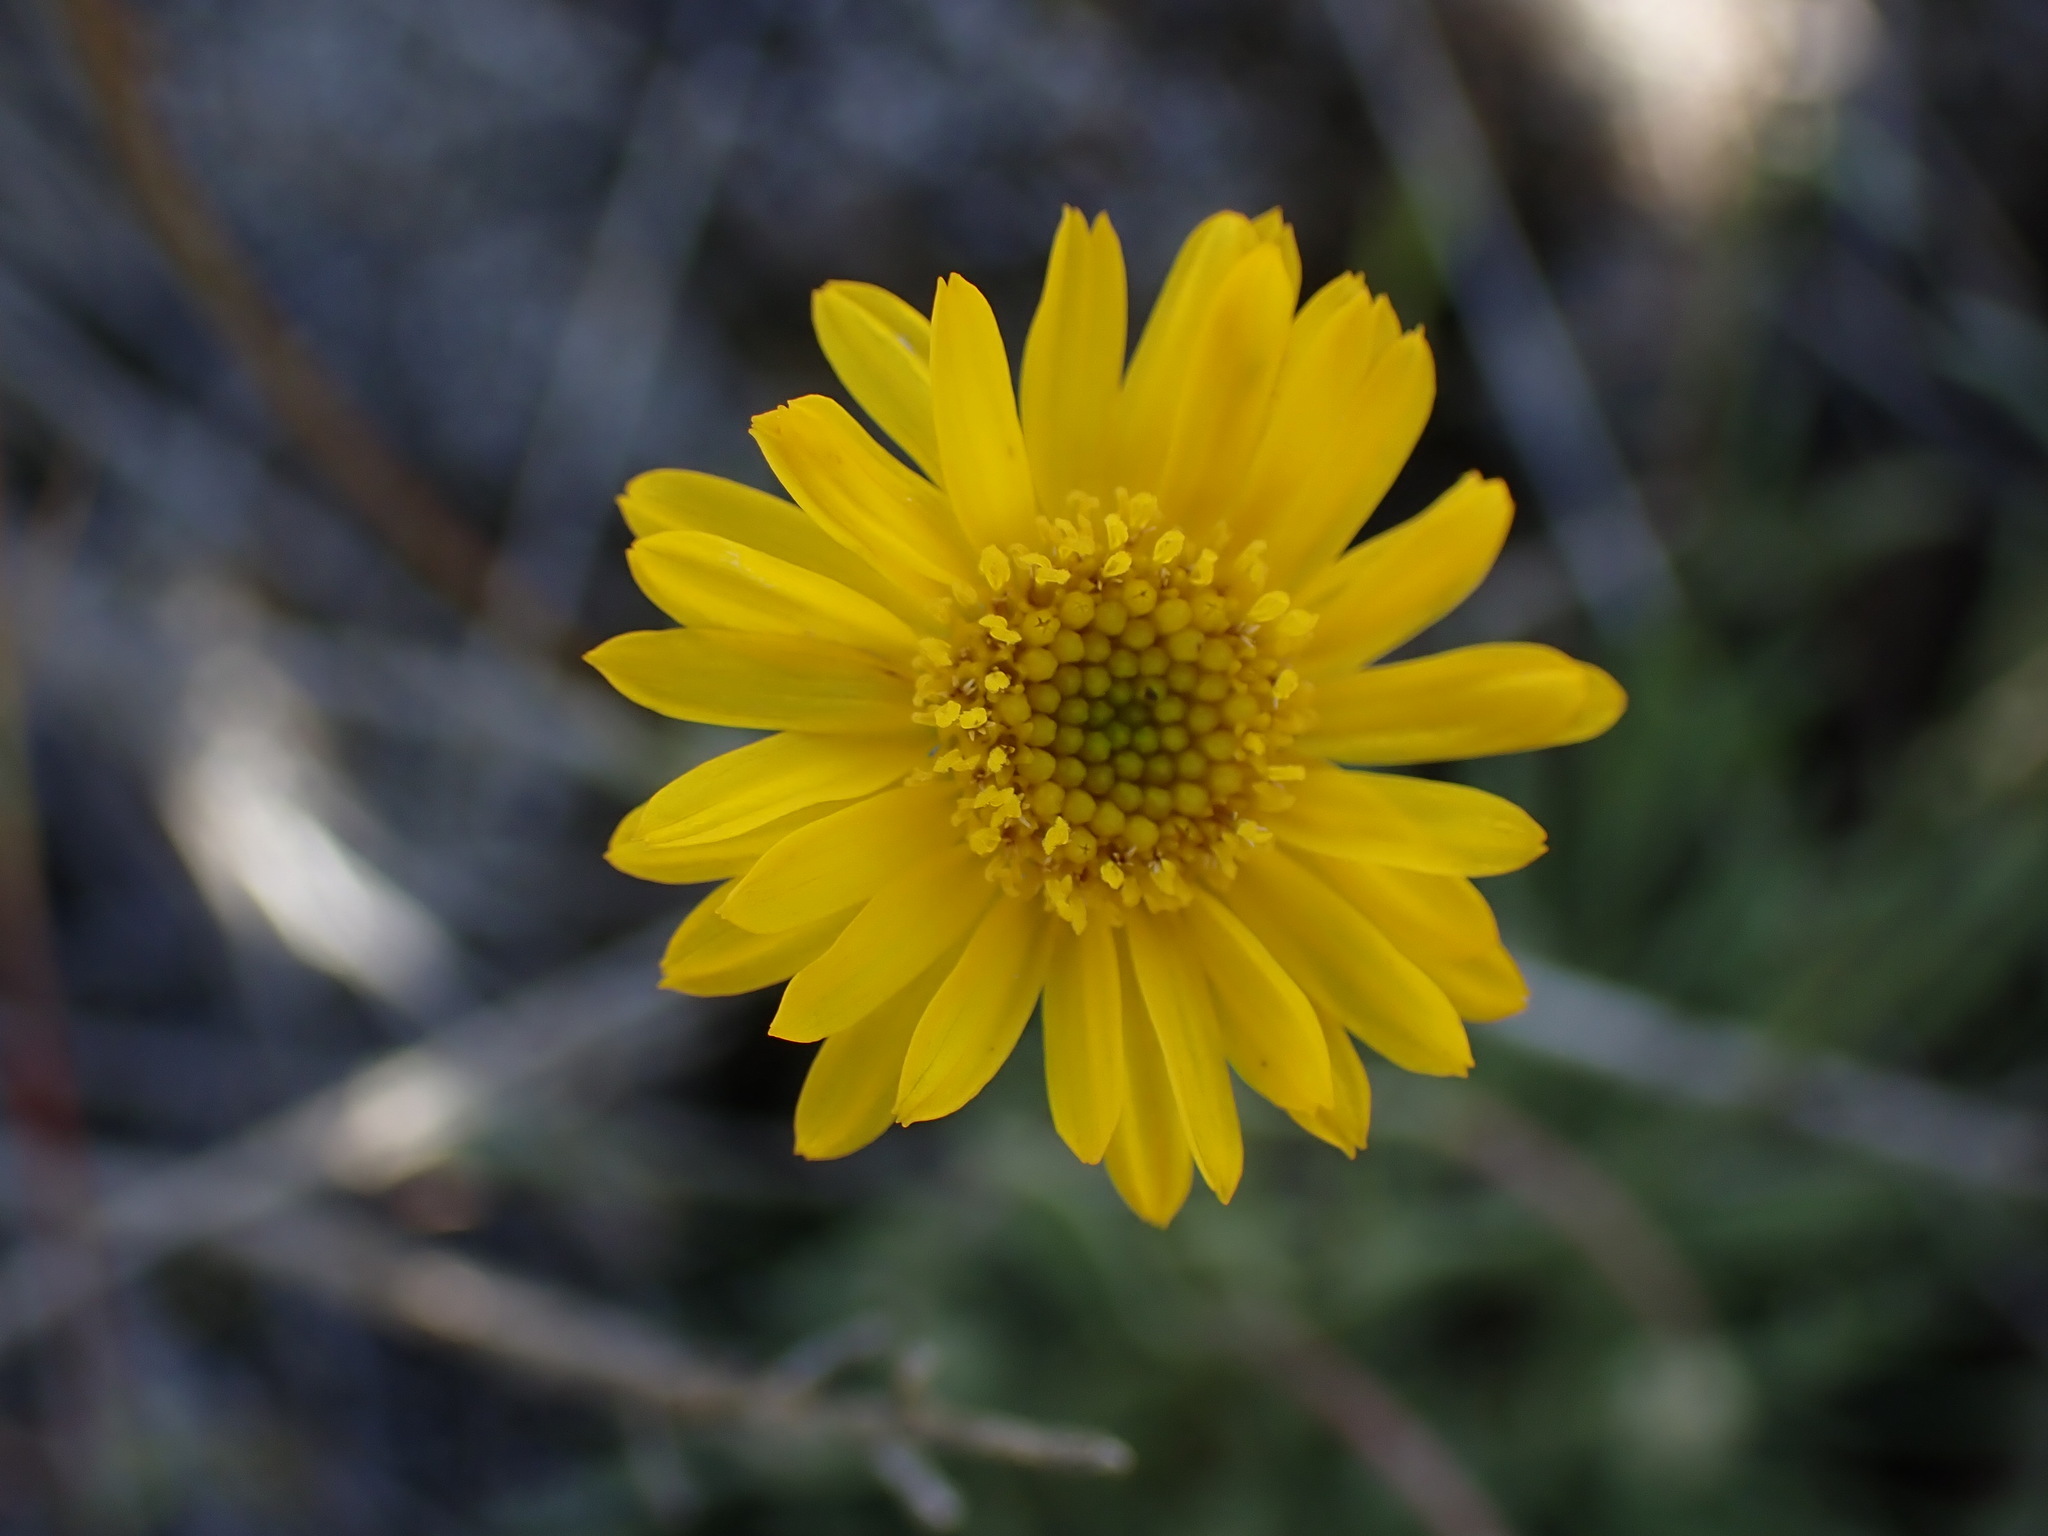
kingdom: Plantae
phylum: Tracheophyta
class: Magnoliopsida
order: Asterales
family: Asteraceae
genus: Erigeron
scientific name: Erigeron linearis
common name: Desert yellow fleabane
